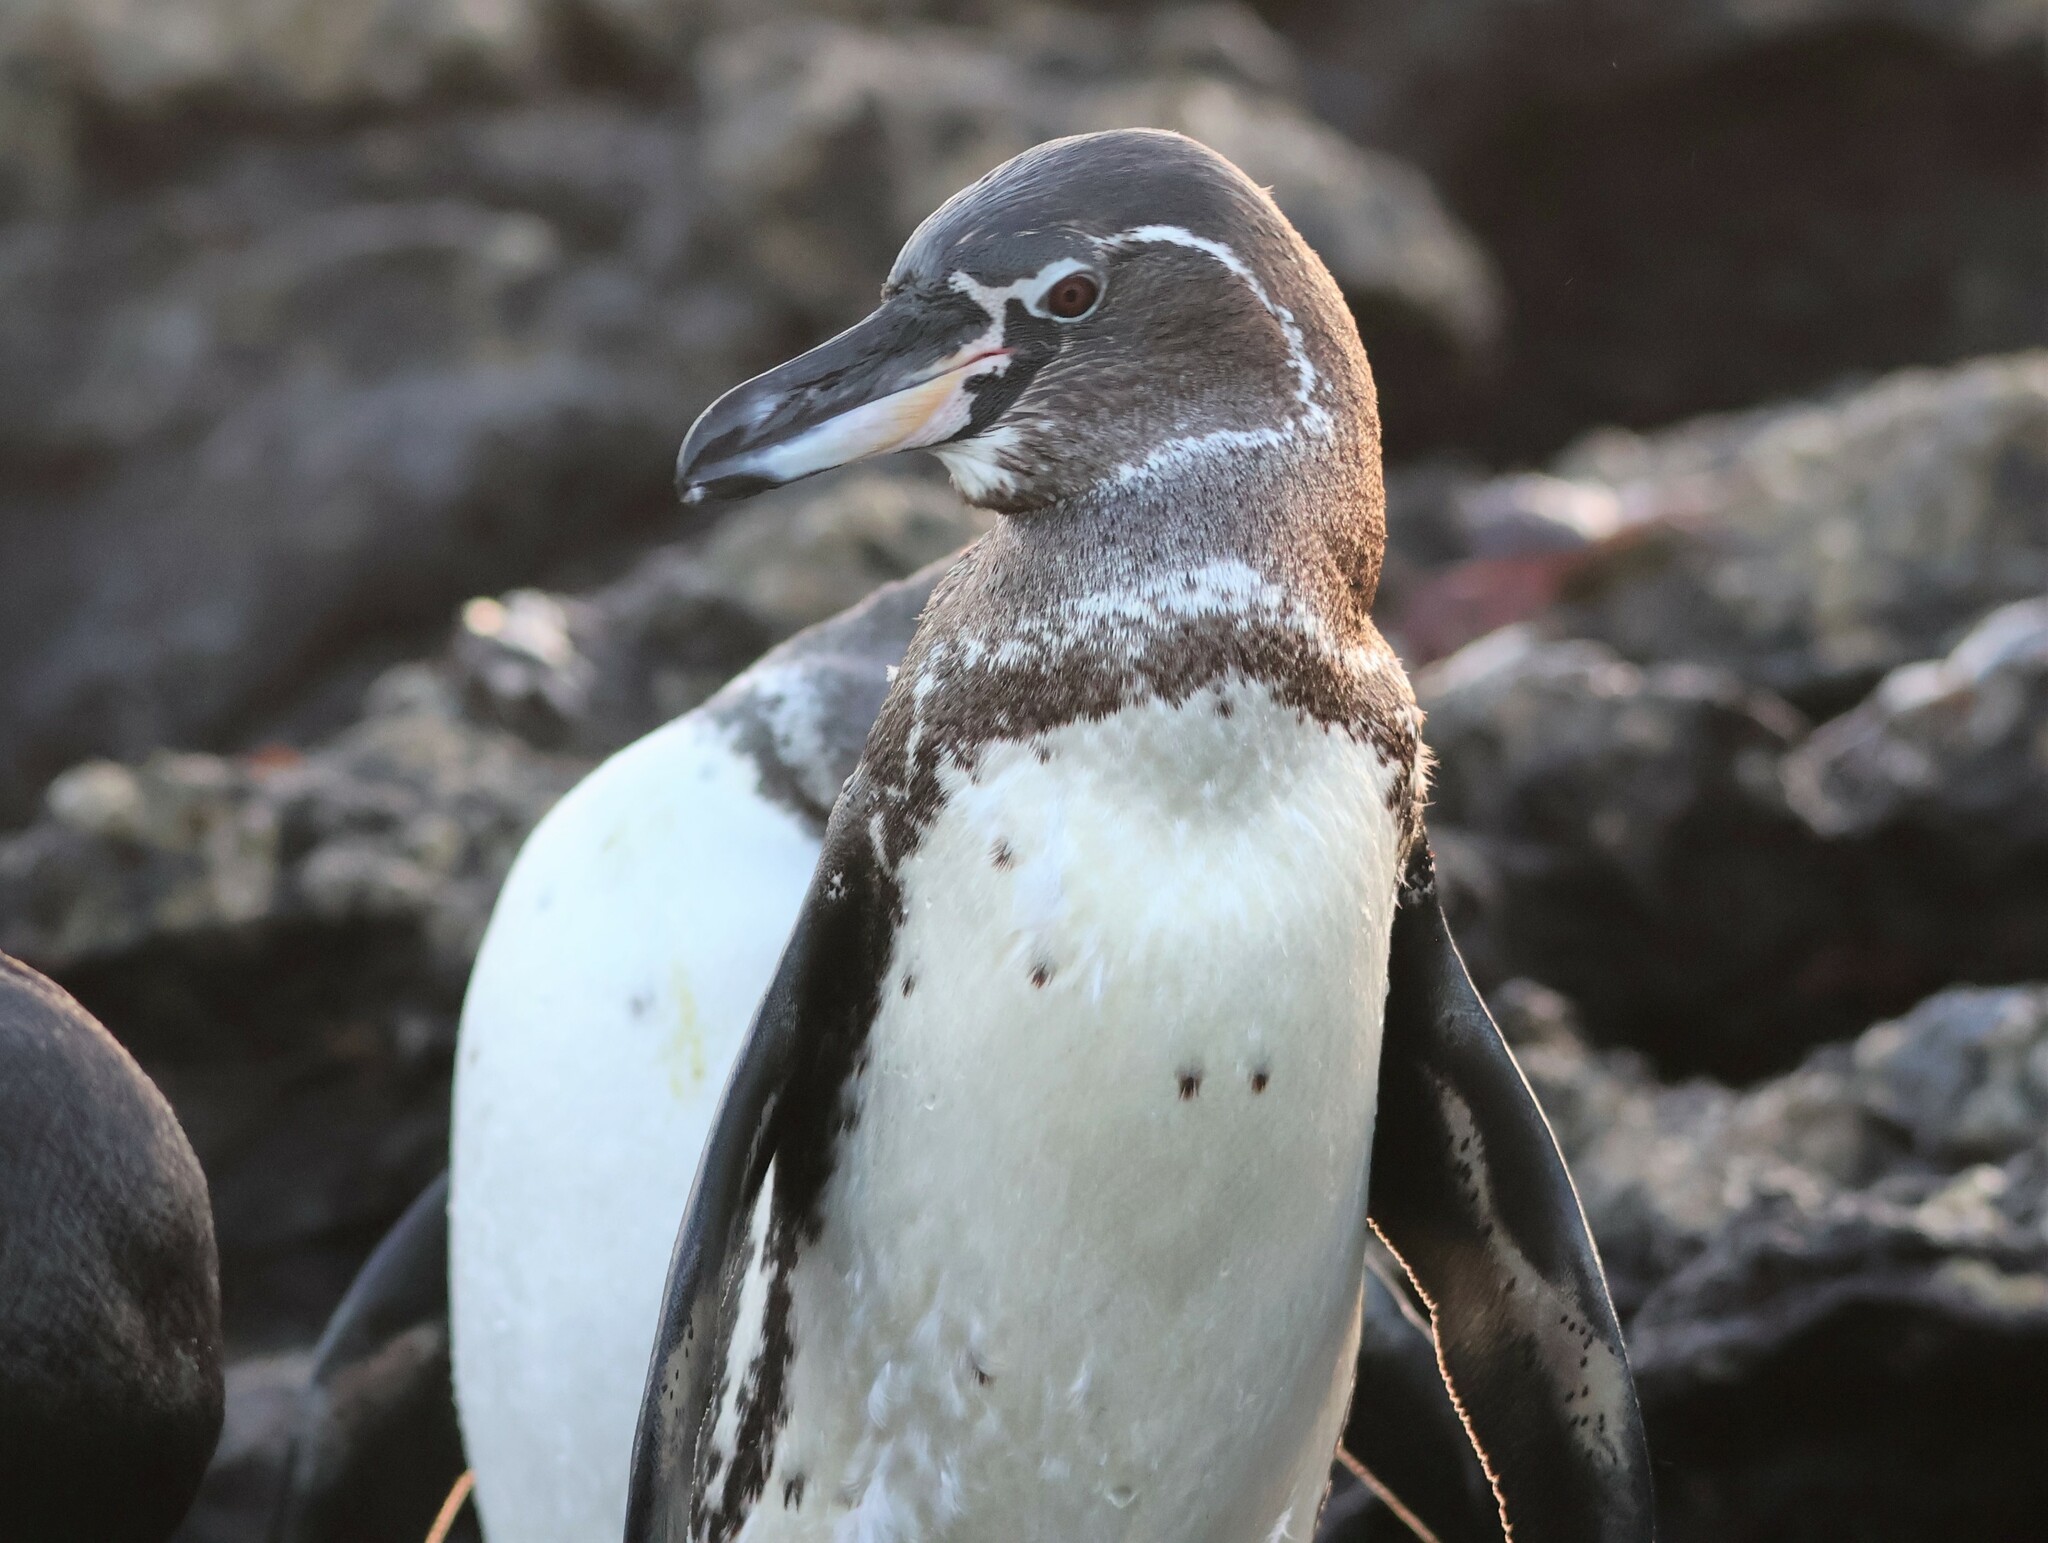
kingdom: Animalia
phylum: Chordata
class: Aves
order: Sphenisciformes
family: Spheniscidae
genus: Spheniscus
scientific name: Spheniscus mendiculus
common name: Galapagos penguin
